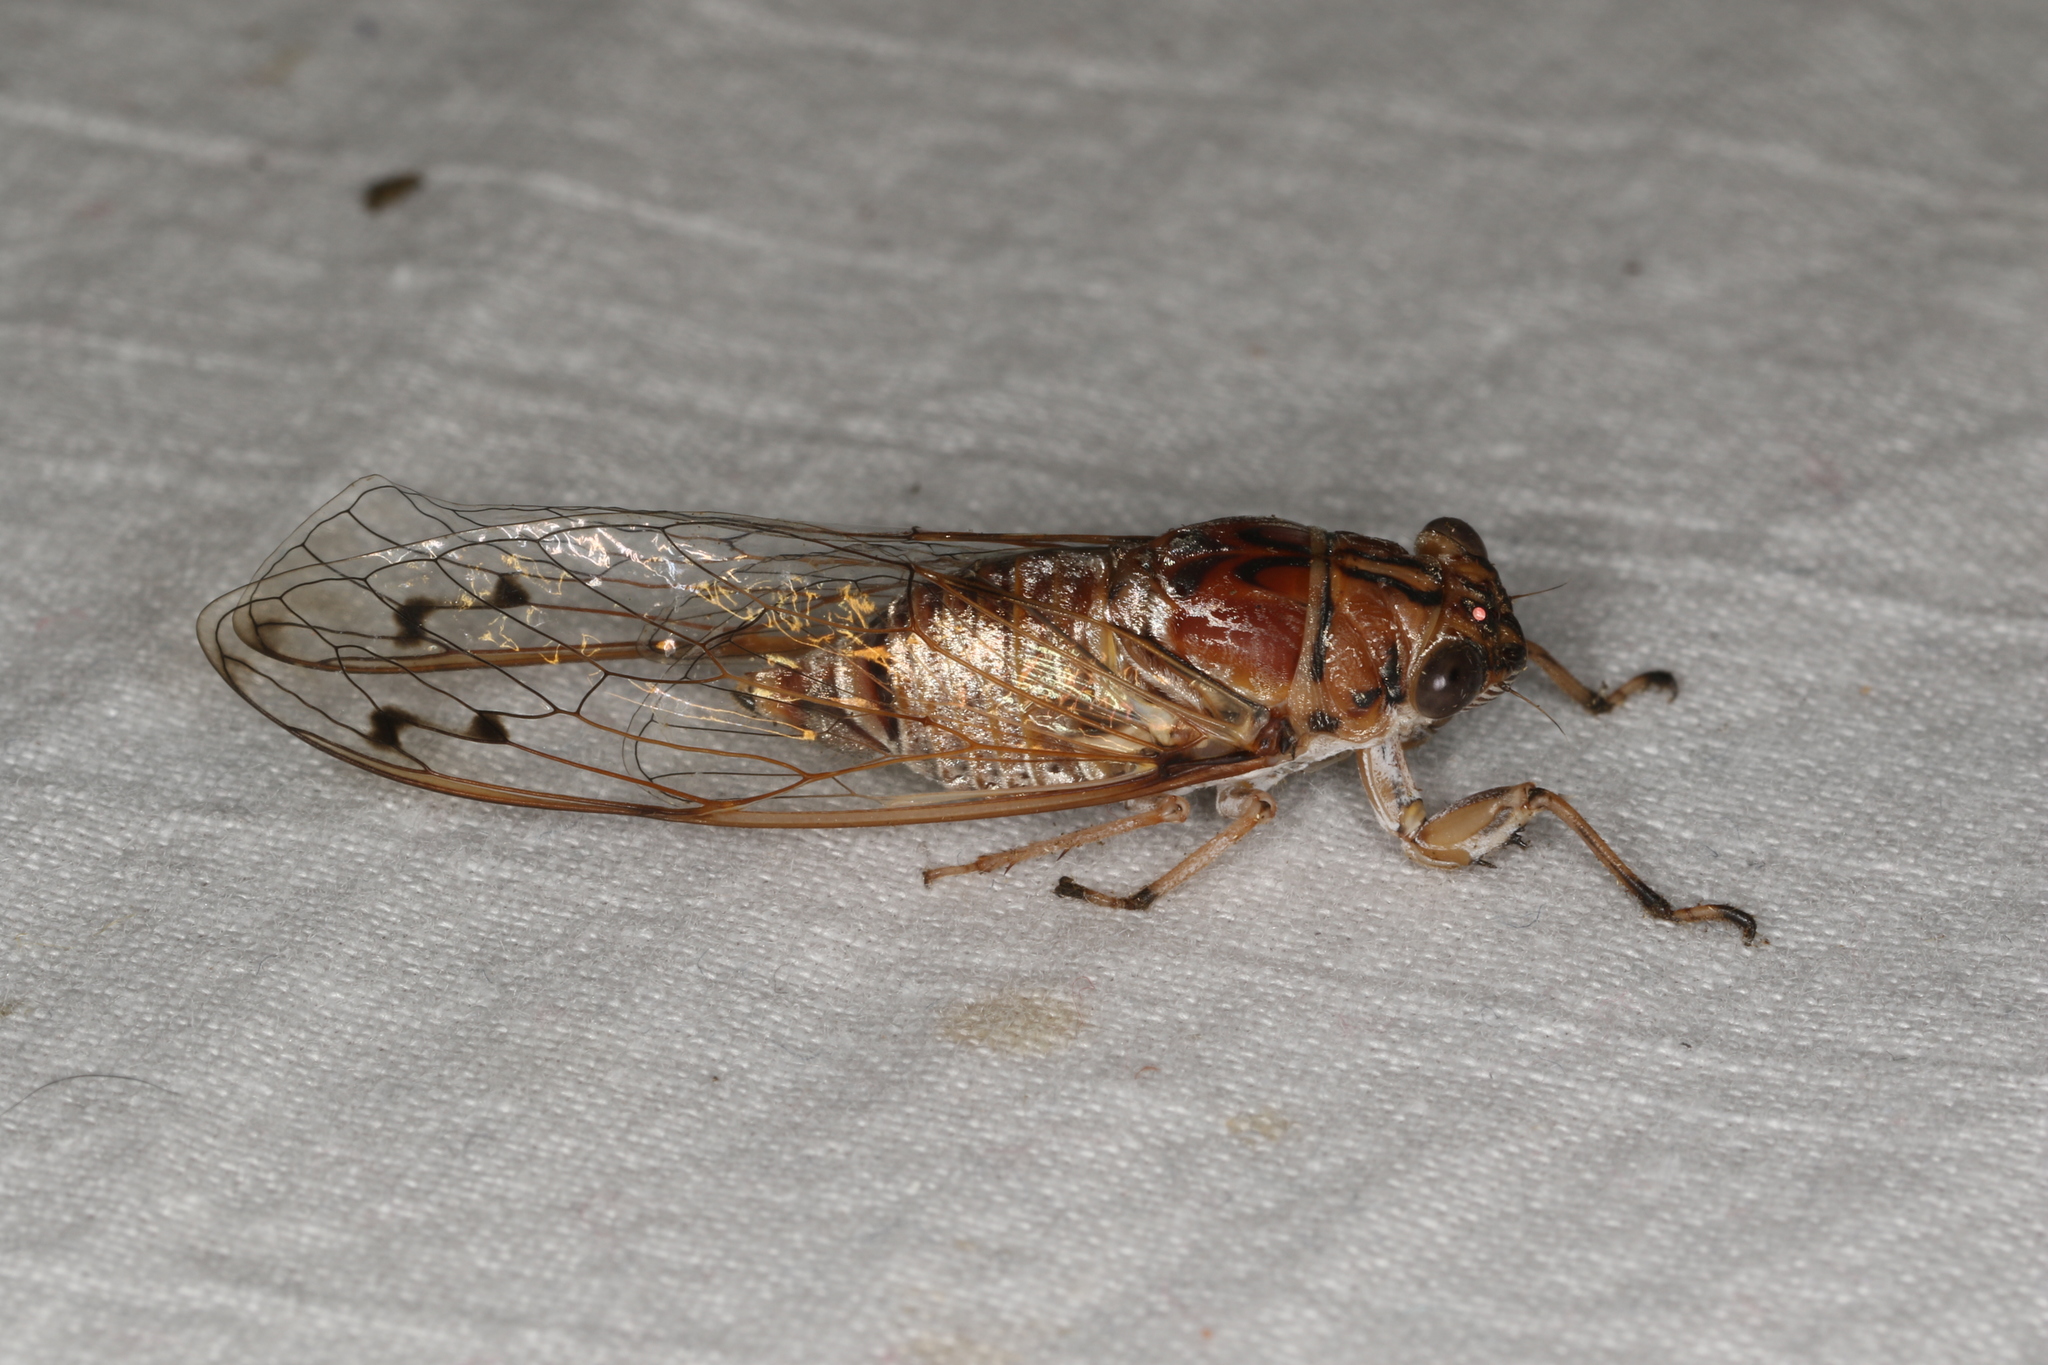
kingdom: Animalia
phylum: Arthropoda
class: Insecta
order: Hemiptera
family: Cicadidae
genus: Tamasa
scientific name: Tamasa burgessi
